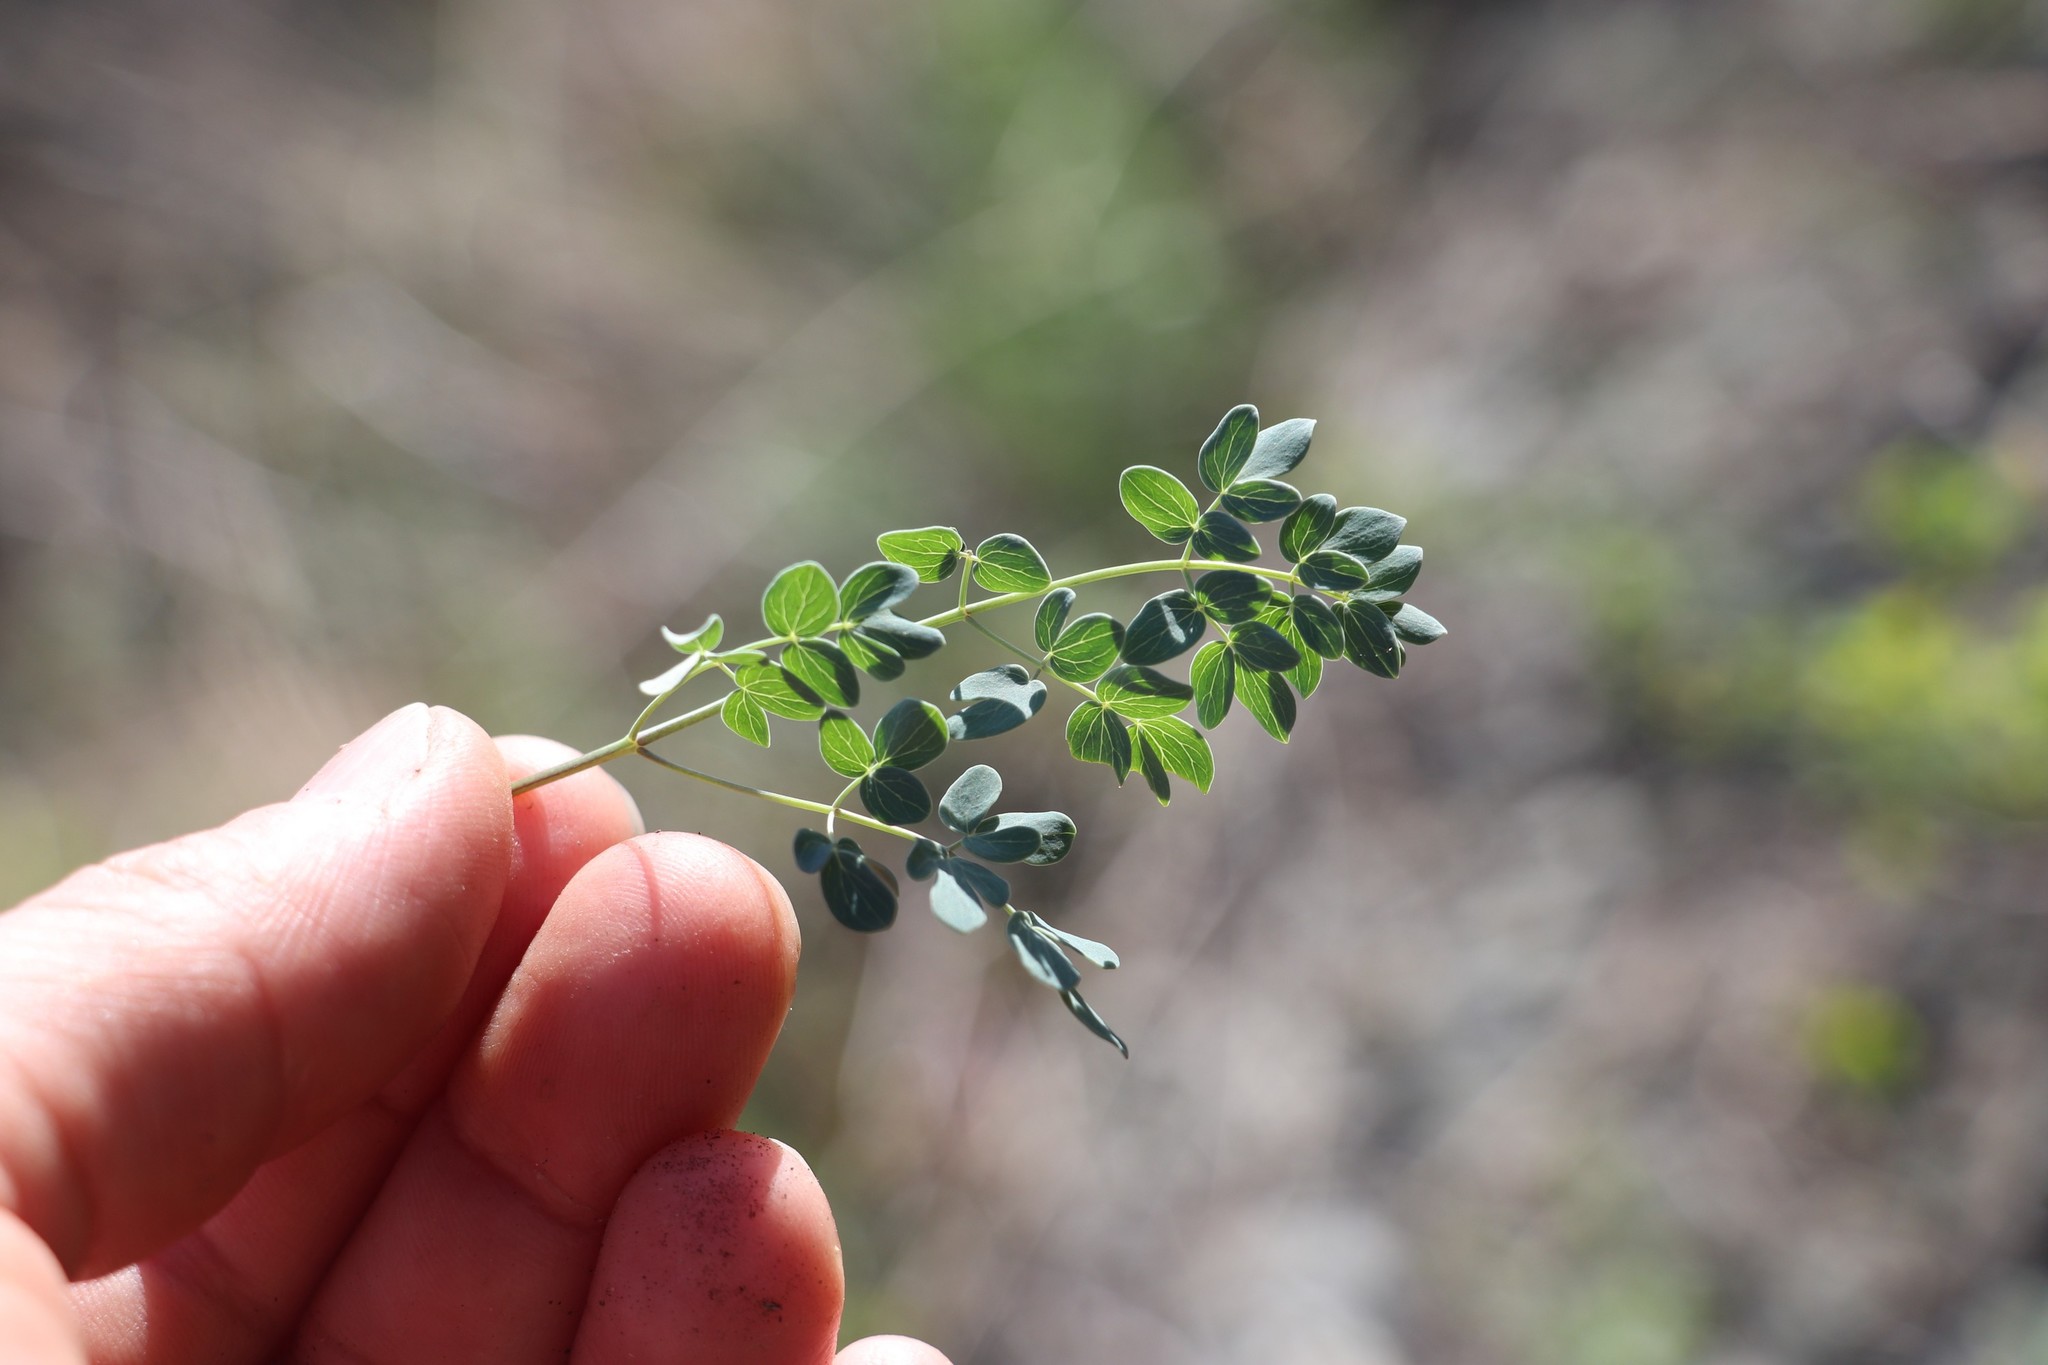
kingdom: Plantae
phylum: Tracheophyta
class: Magnoliopsida
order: Ranunculales
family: Ranunculaceae
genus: Thalictrum
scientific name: Thalictrum petaloideum
